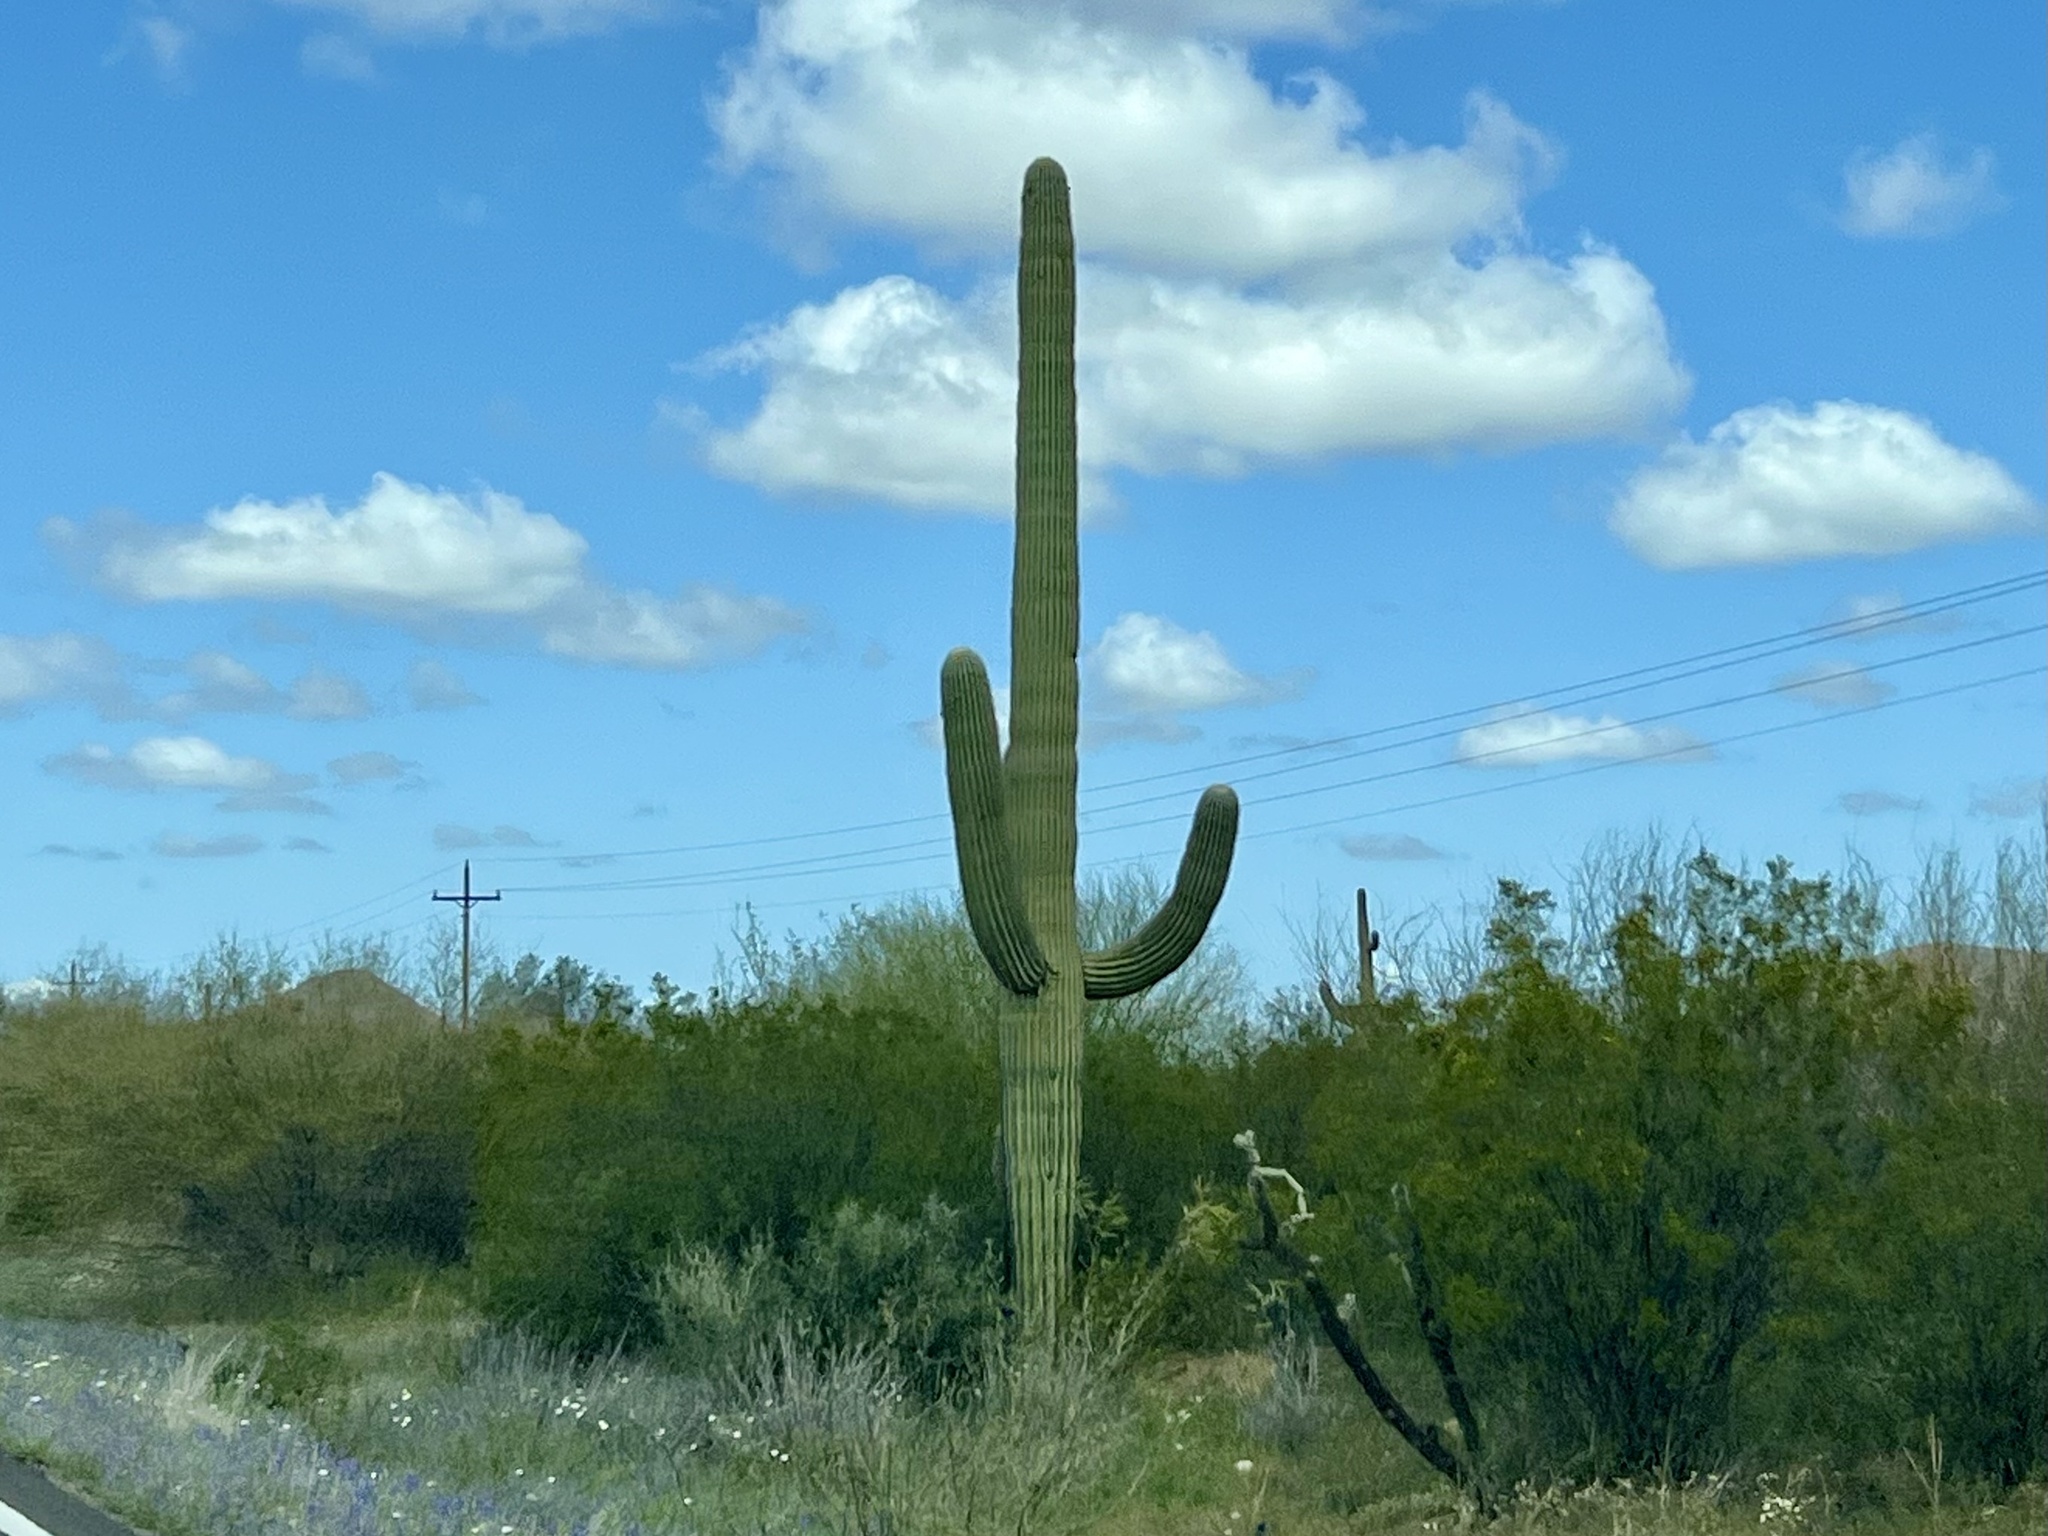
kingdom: Plantae
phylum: Tracheophyta
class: Magnoliopsida
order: Caryophyllales
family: Cactaceae
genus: Carnegiea
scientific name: Carnegiea gigantea
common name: Saguaro
